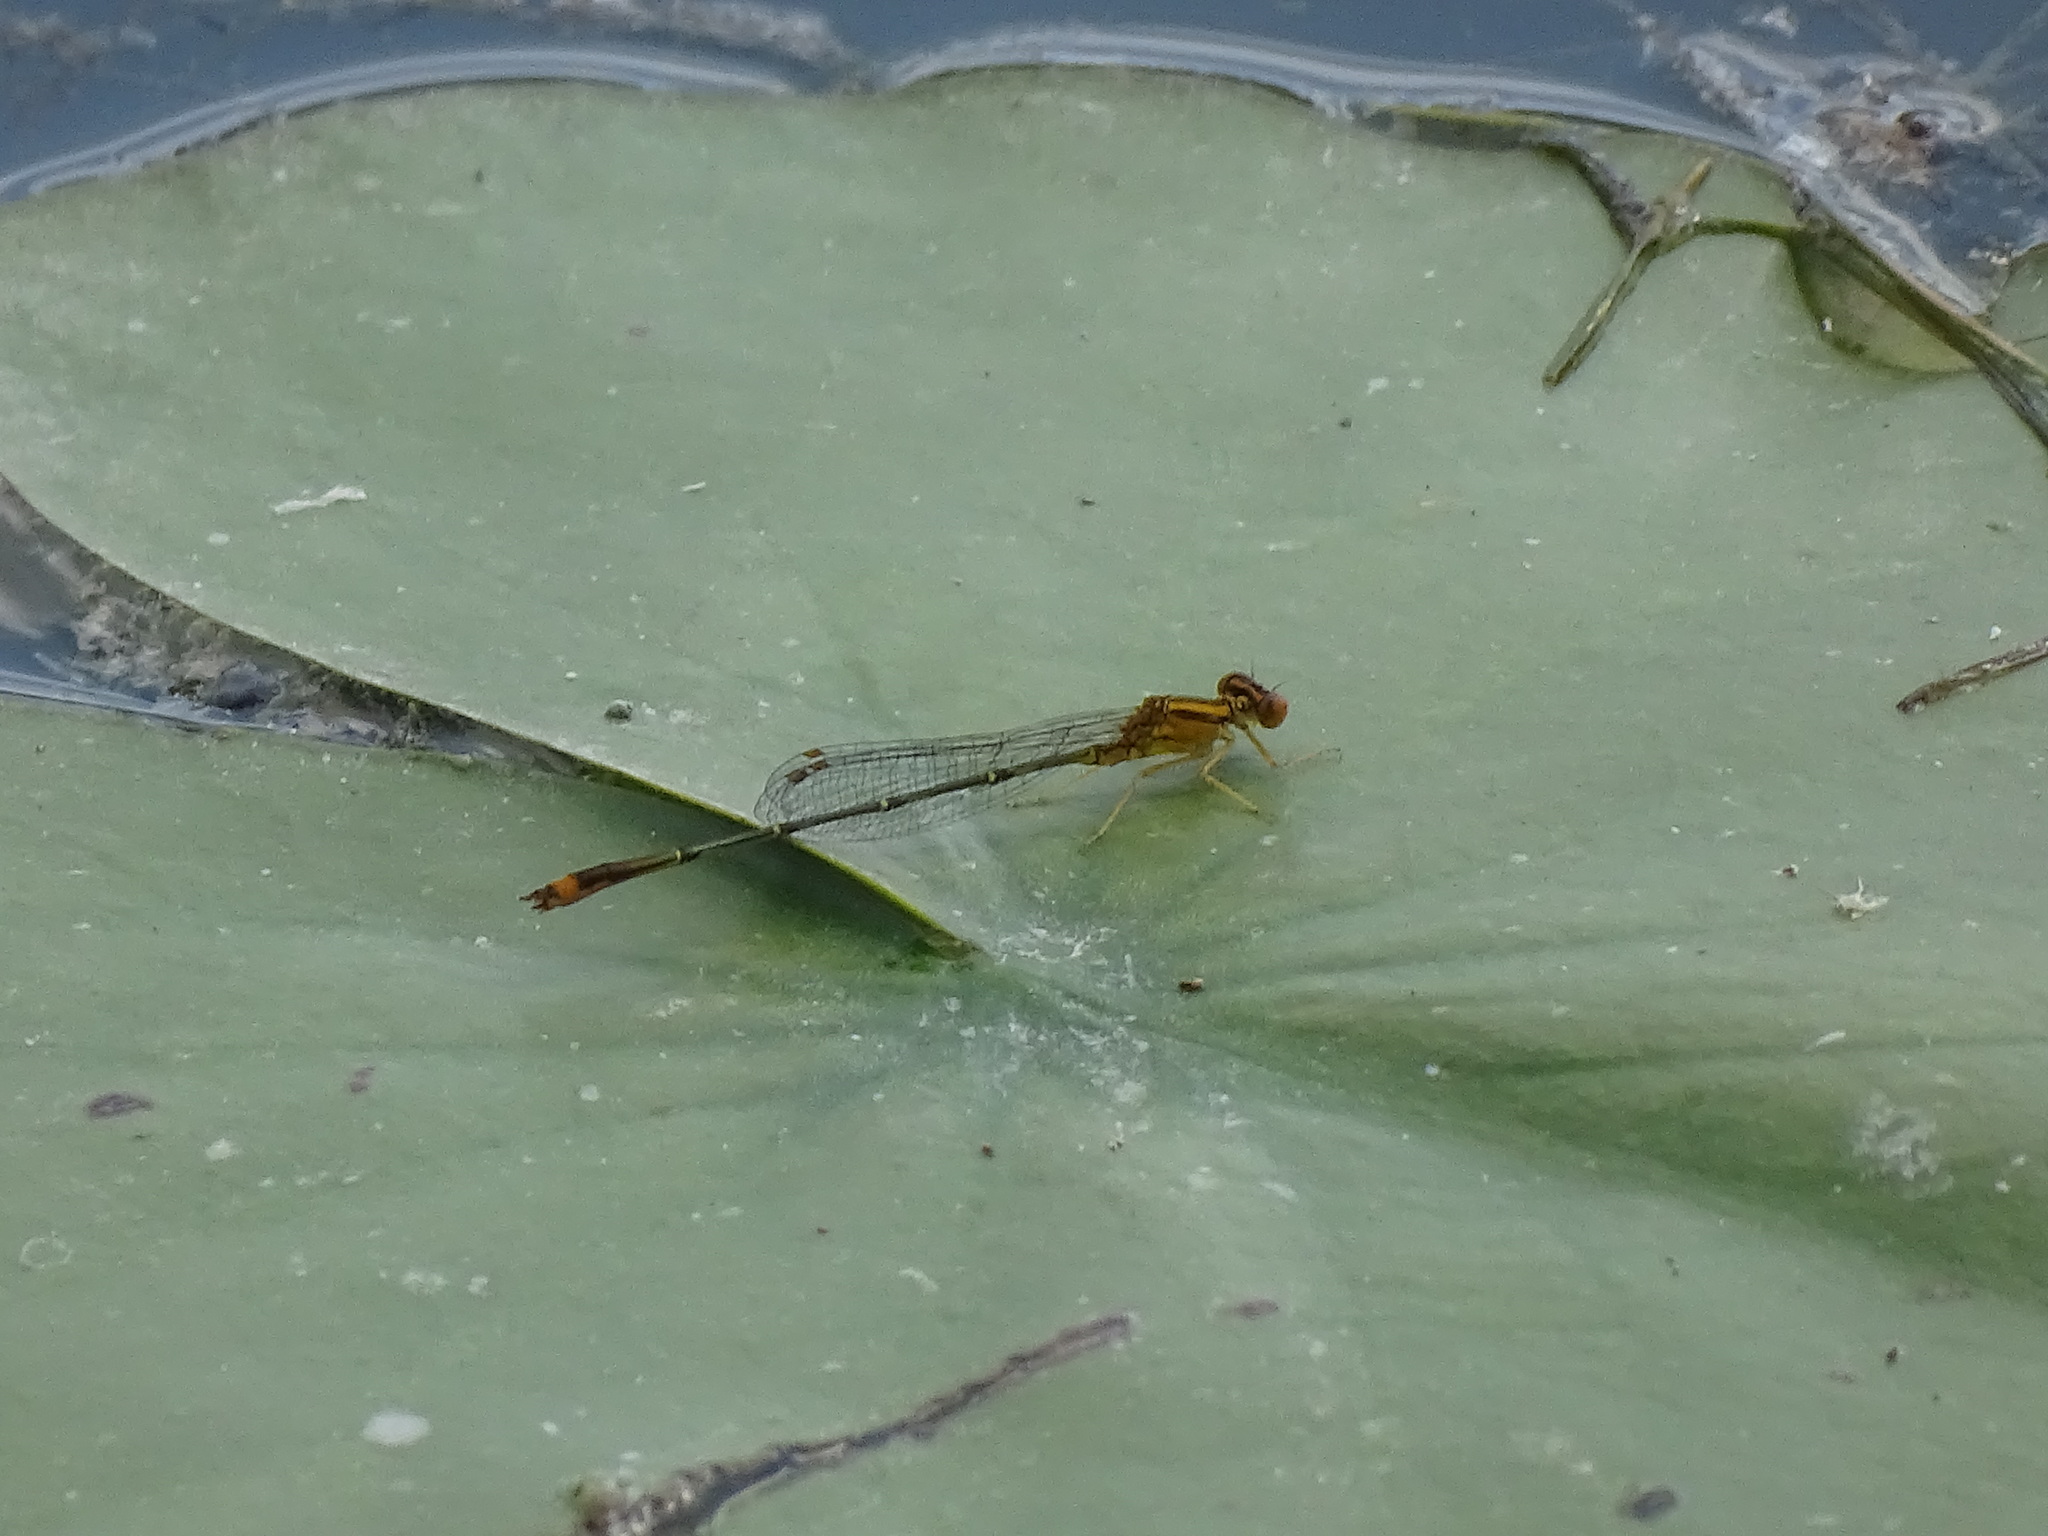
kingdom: Animalia
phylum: Arthropoda
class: Insecta
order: Odonata
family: Coenagrionidae
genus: Enallagma
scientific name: Enallagma signatum
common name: Orange bluet
